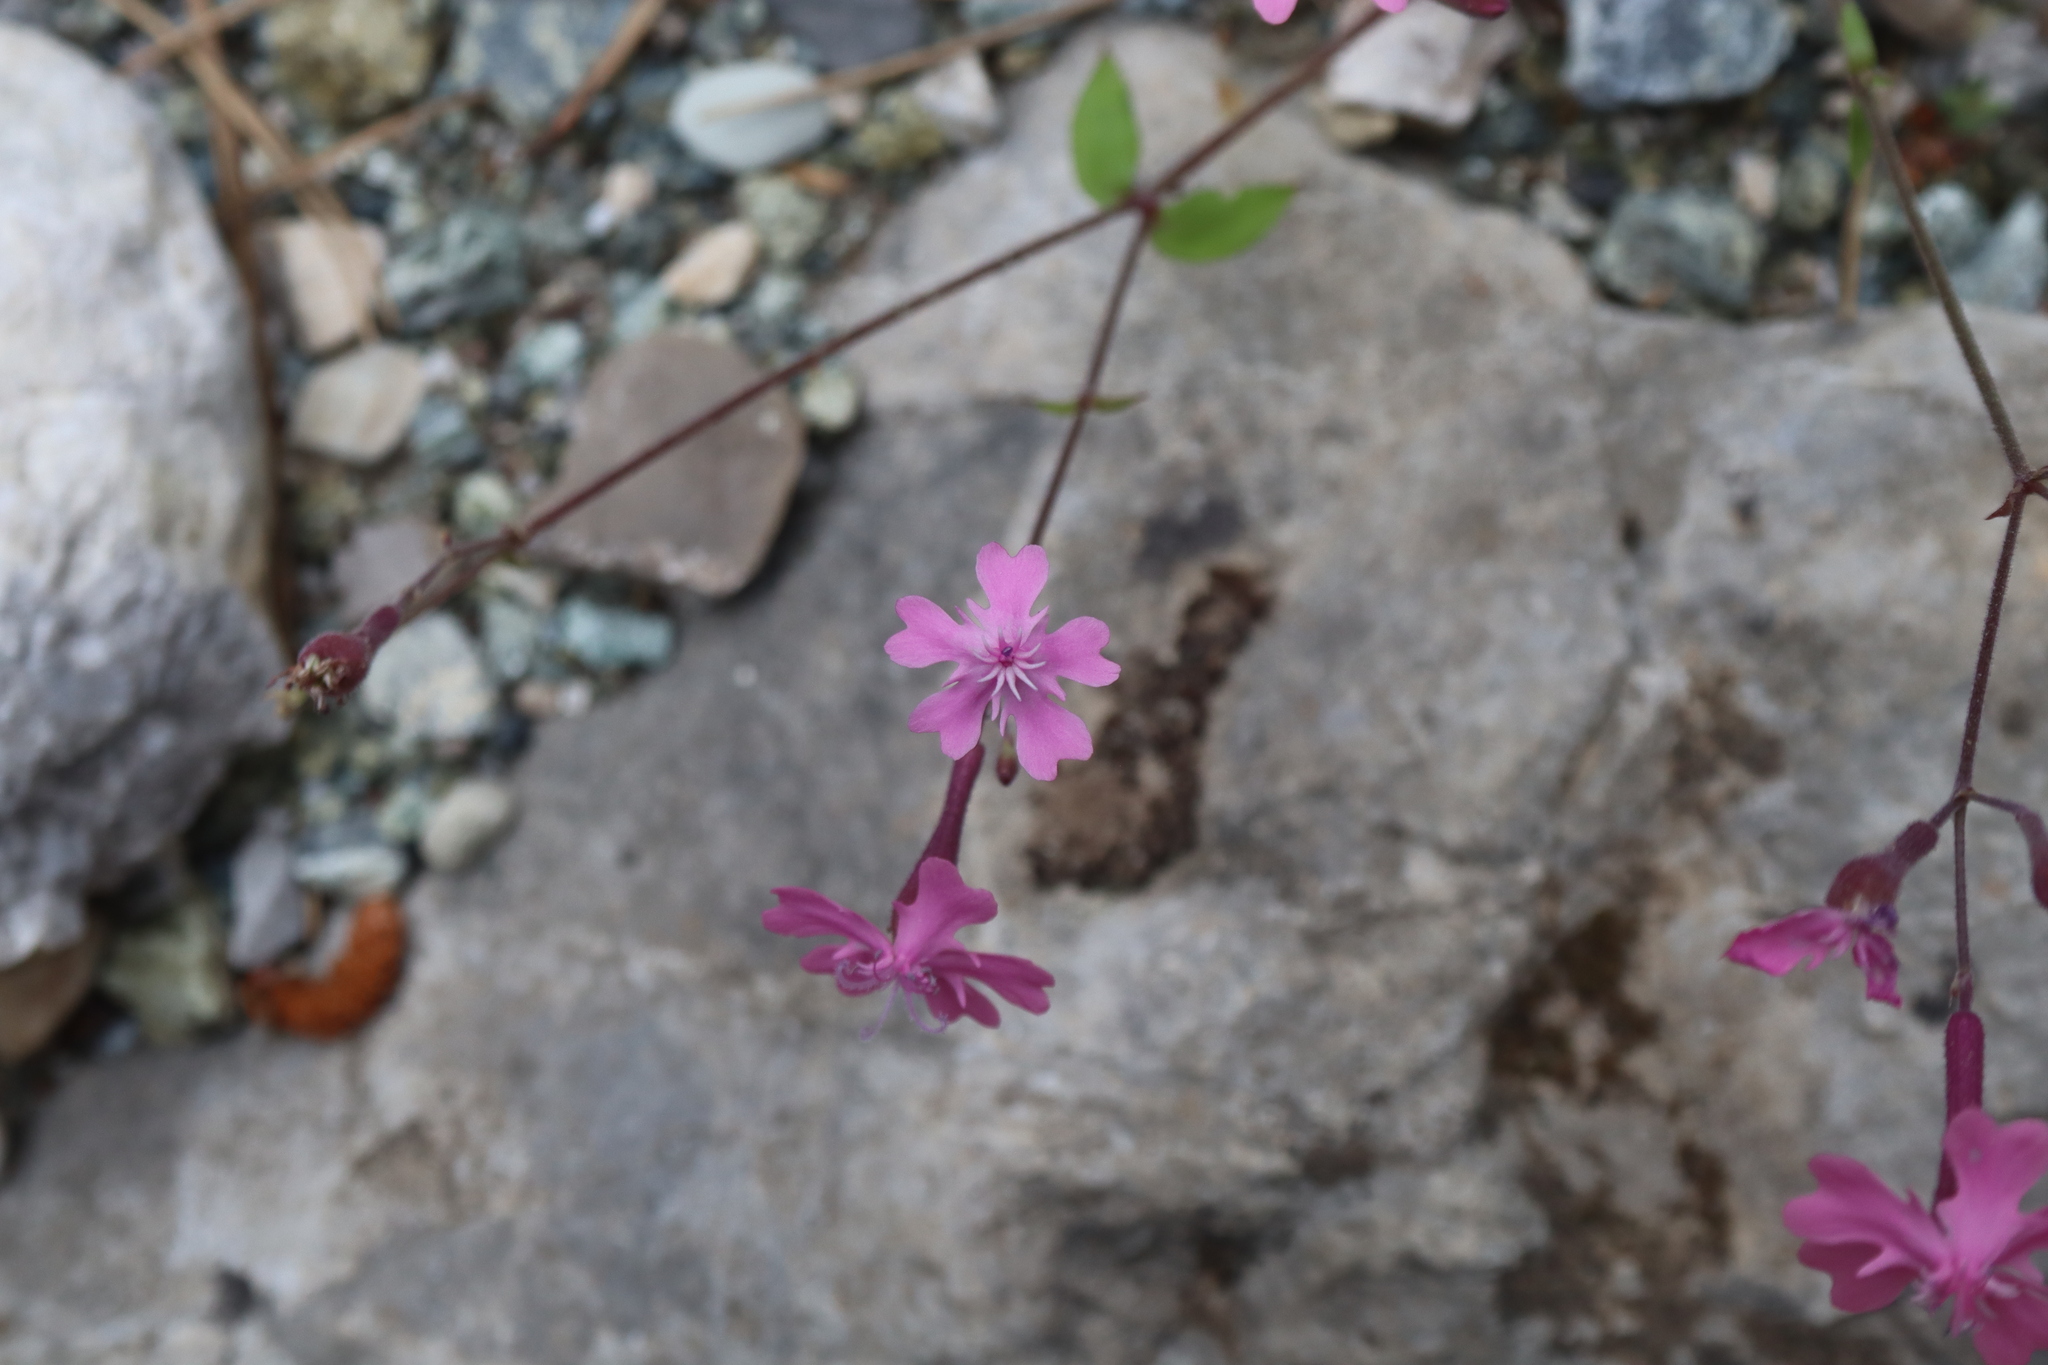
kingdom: Plantae
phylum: Tracheophyta
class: Magnoliopsida
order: Caryophyllales
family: Caryophyllaceae
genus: Silene
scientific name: Silene aegyptiaca
